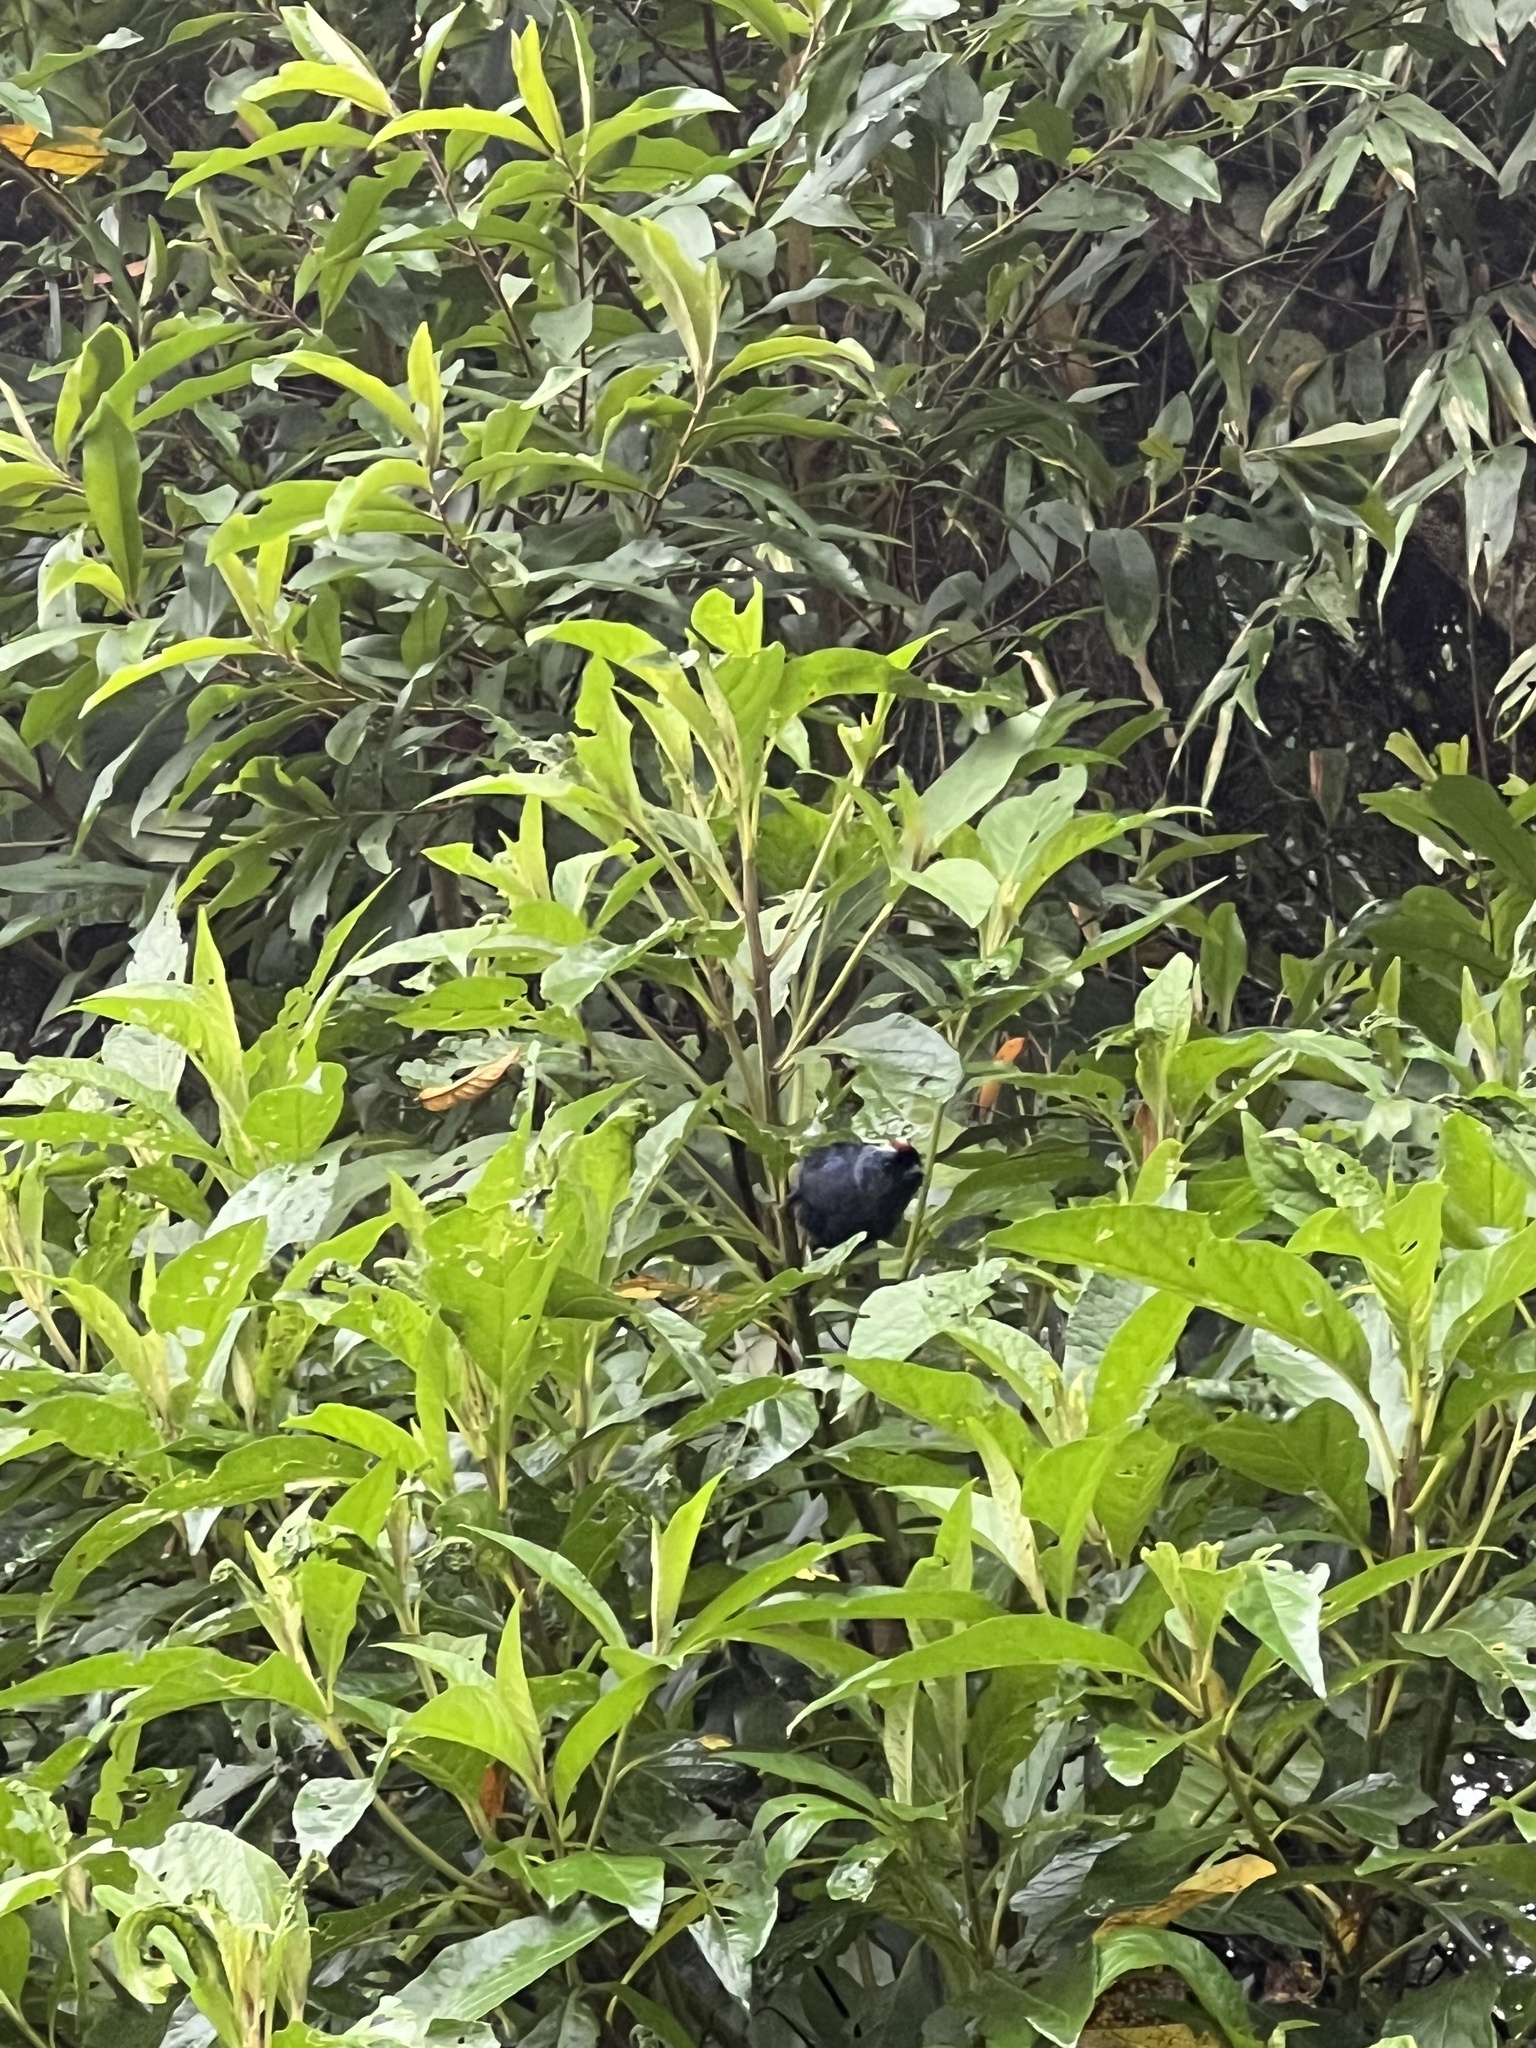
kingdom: Animalia
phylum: Chordata
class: Aves
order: Passeriformes
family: Thraupidae
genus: Stephanophorus
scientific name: Stephanophorus diadematus
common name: Diademed tanager
